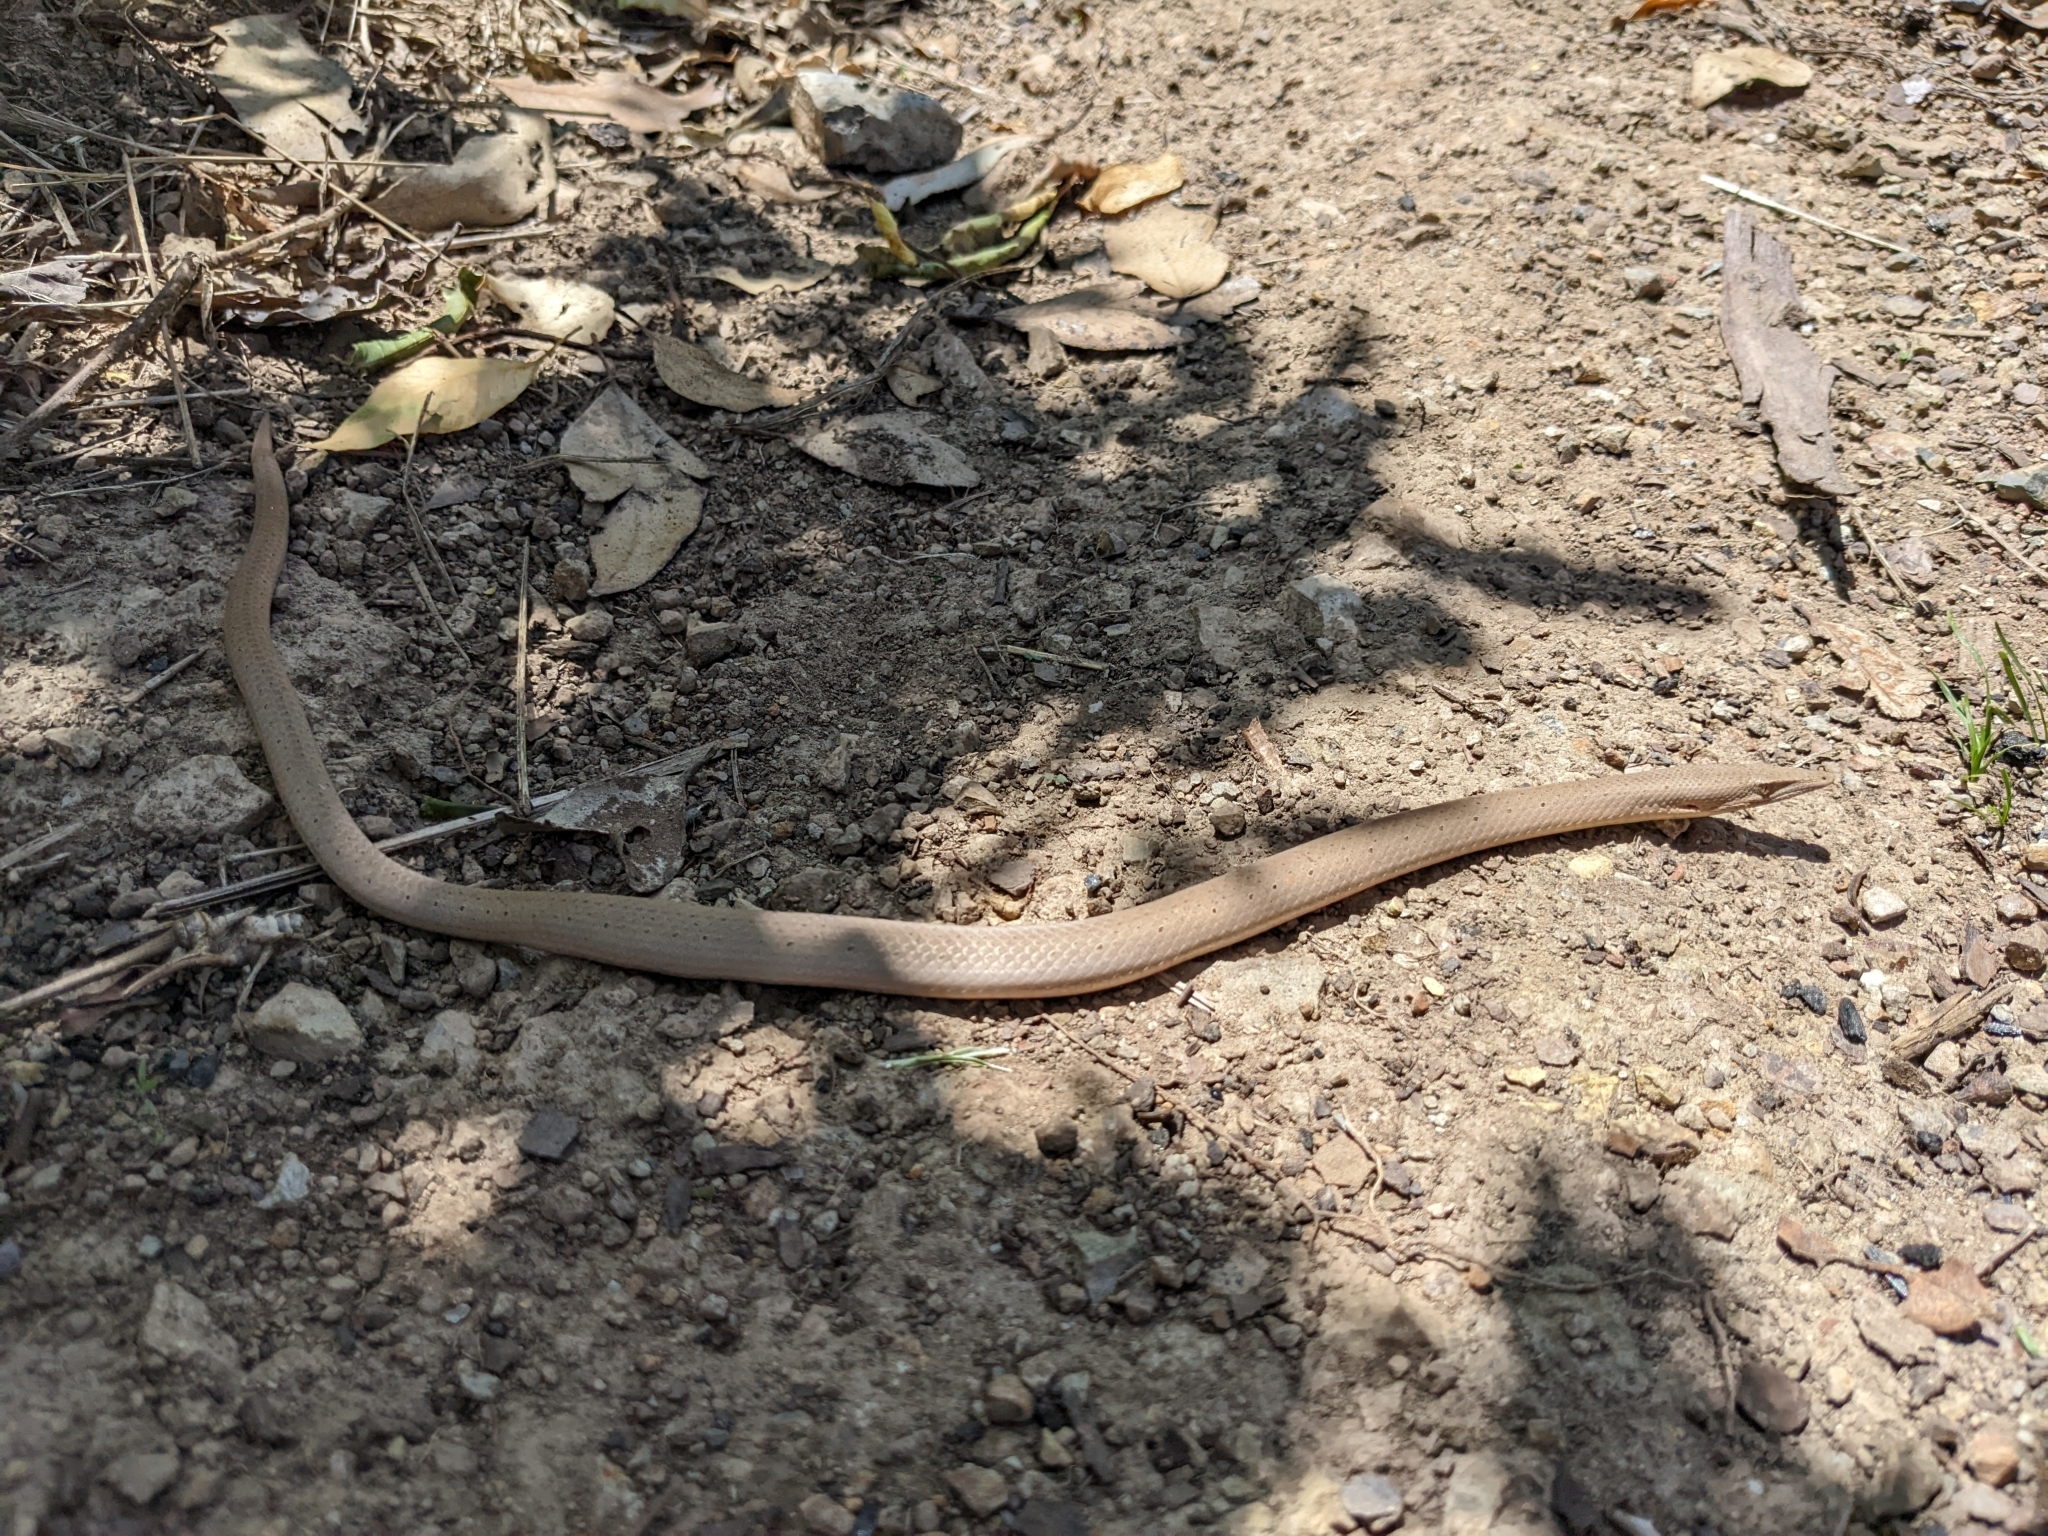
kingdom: Animalia
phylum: Chordata
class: Squamata
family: Pygopodidae
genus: Lialis
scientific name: Lialis burtonis
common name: Burton's legless lizard
